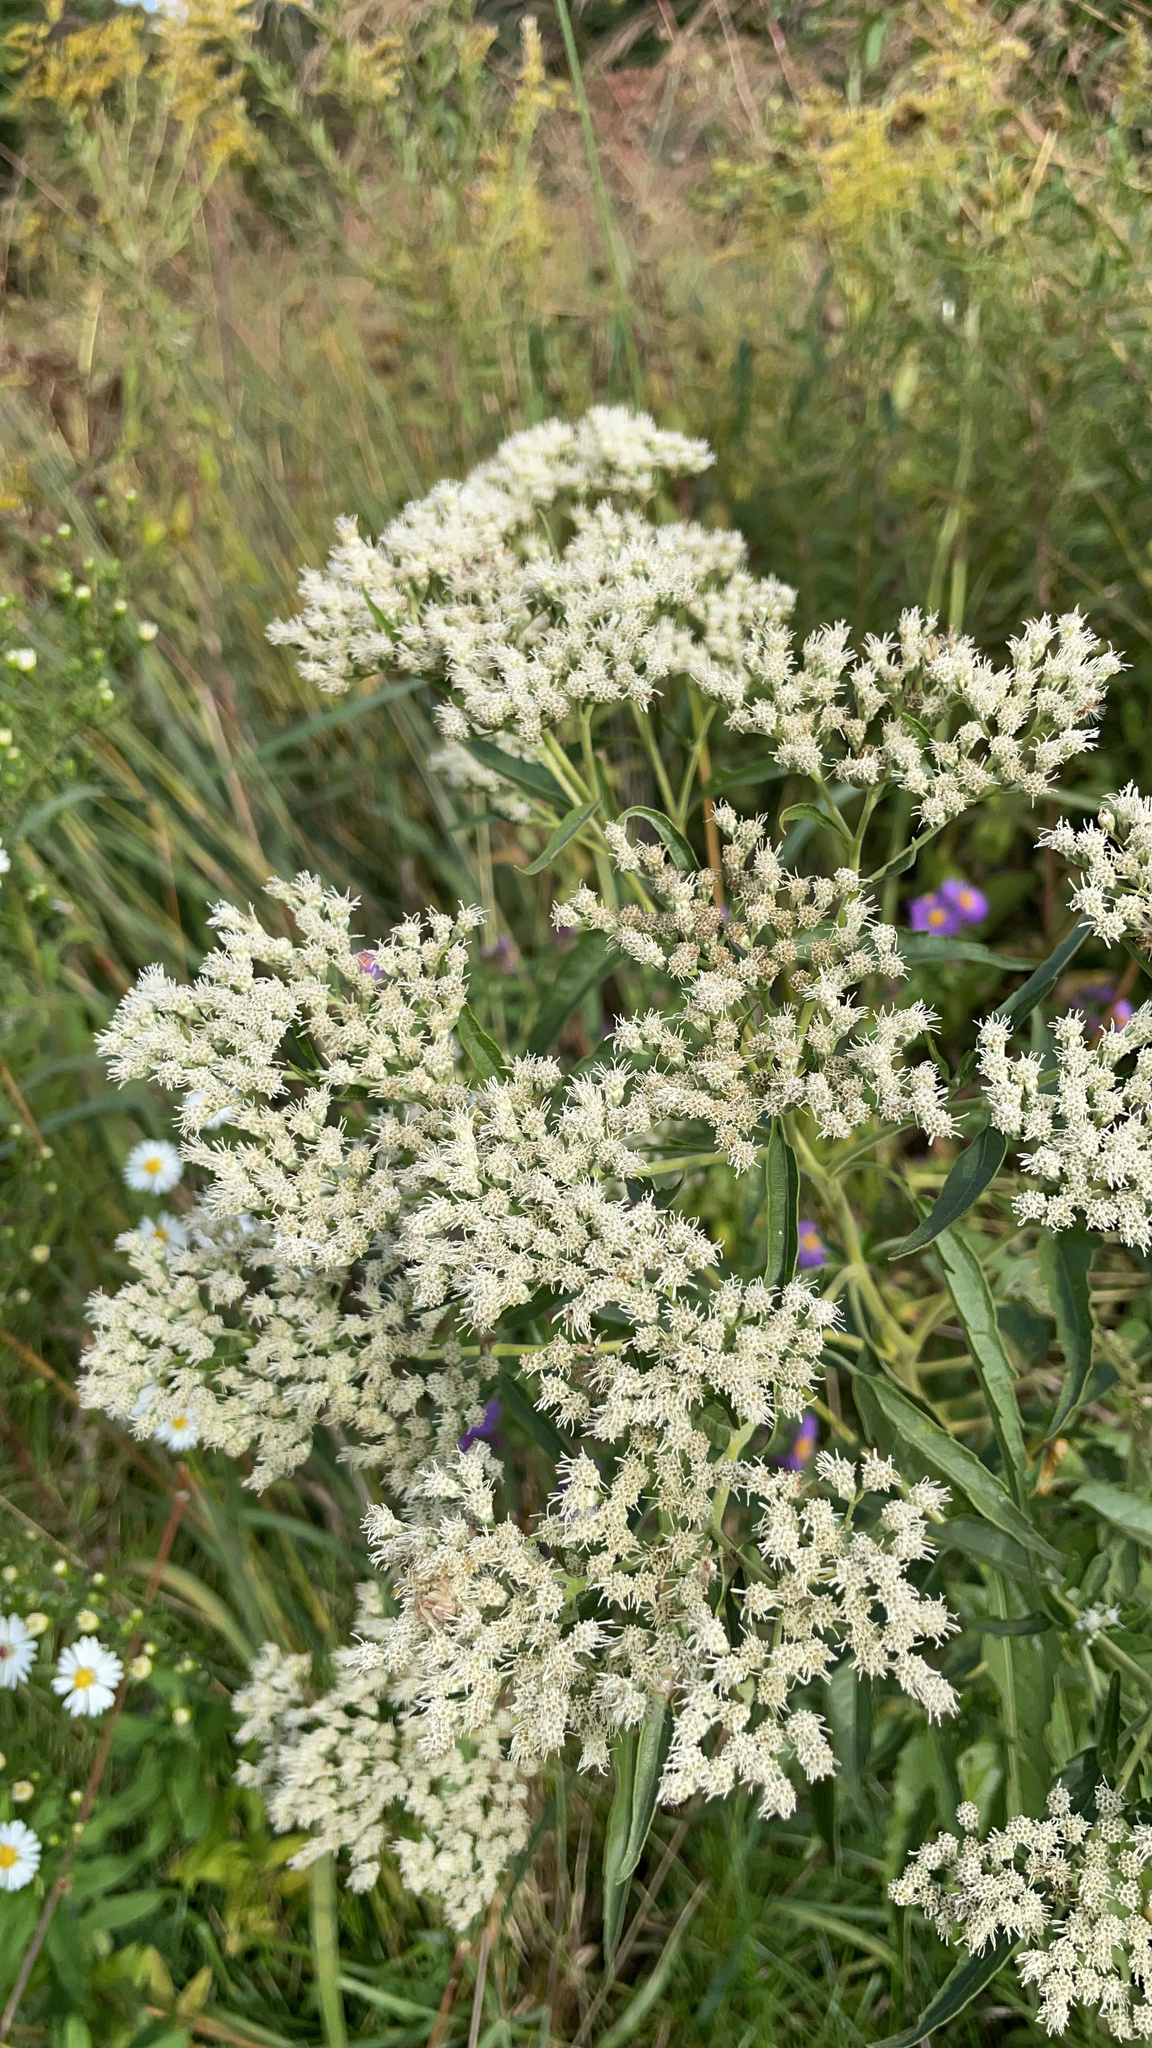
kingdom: Plantae
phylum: Tracheophyta
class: Magnoliopsida
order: Asterales
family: Asteraceae
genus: Eupatorium
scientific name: Eupatorium serotinum
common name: Late boneset
